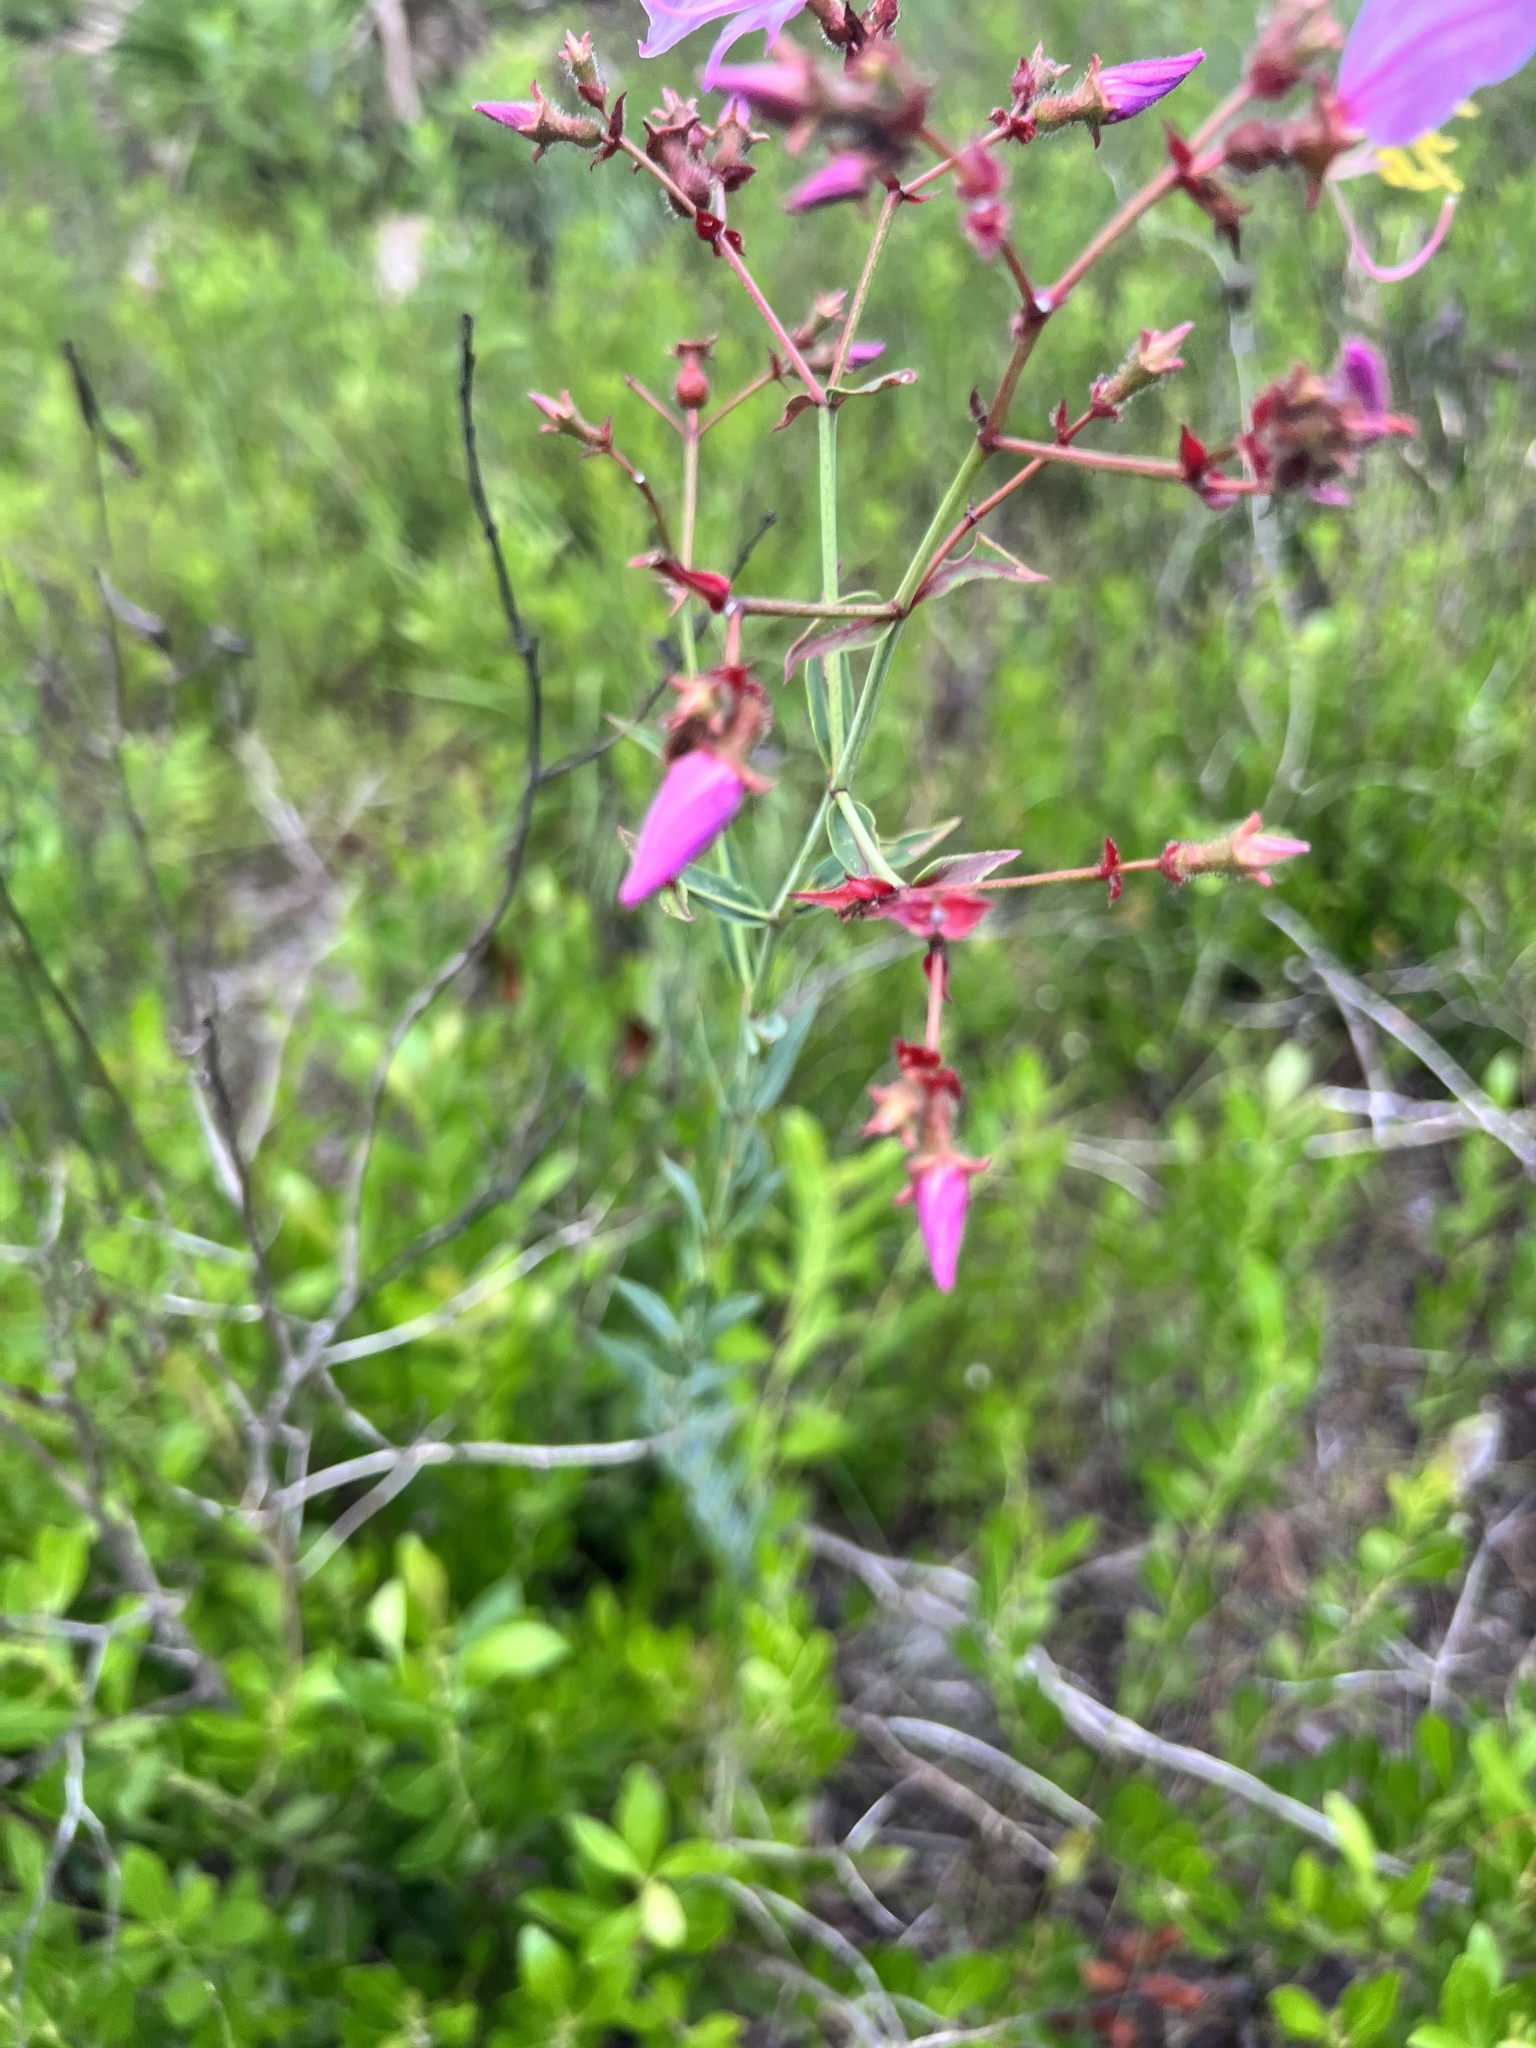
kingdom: Plantae
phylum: Tracheophyta
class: Magnoliopsida
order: Myrtales
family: Melastomataceae
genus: Rhexia
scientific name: Rhexia alifanus
